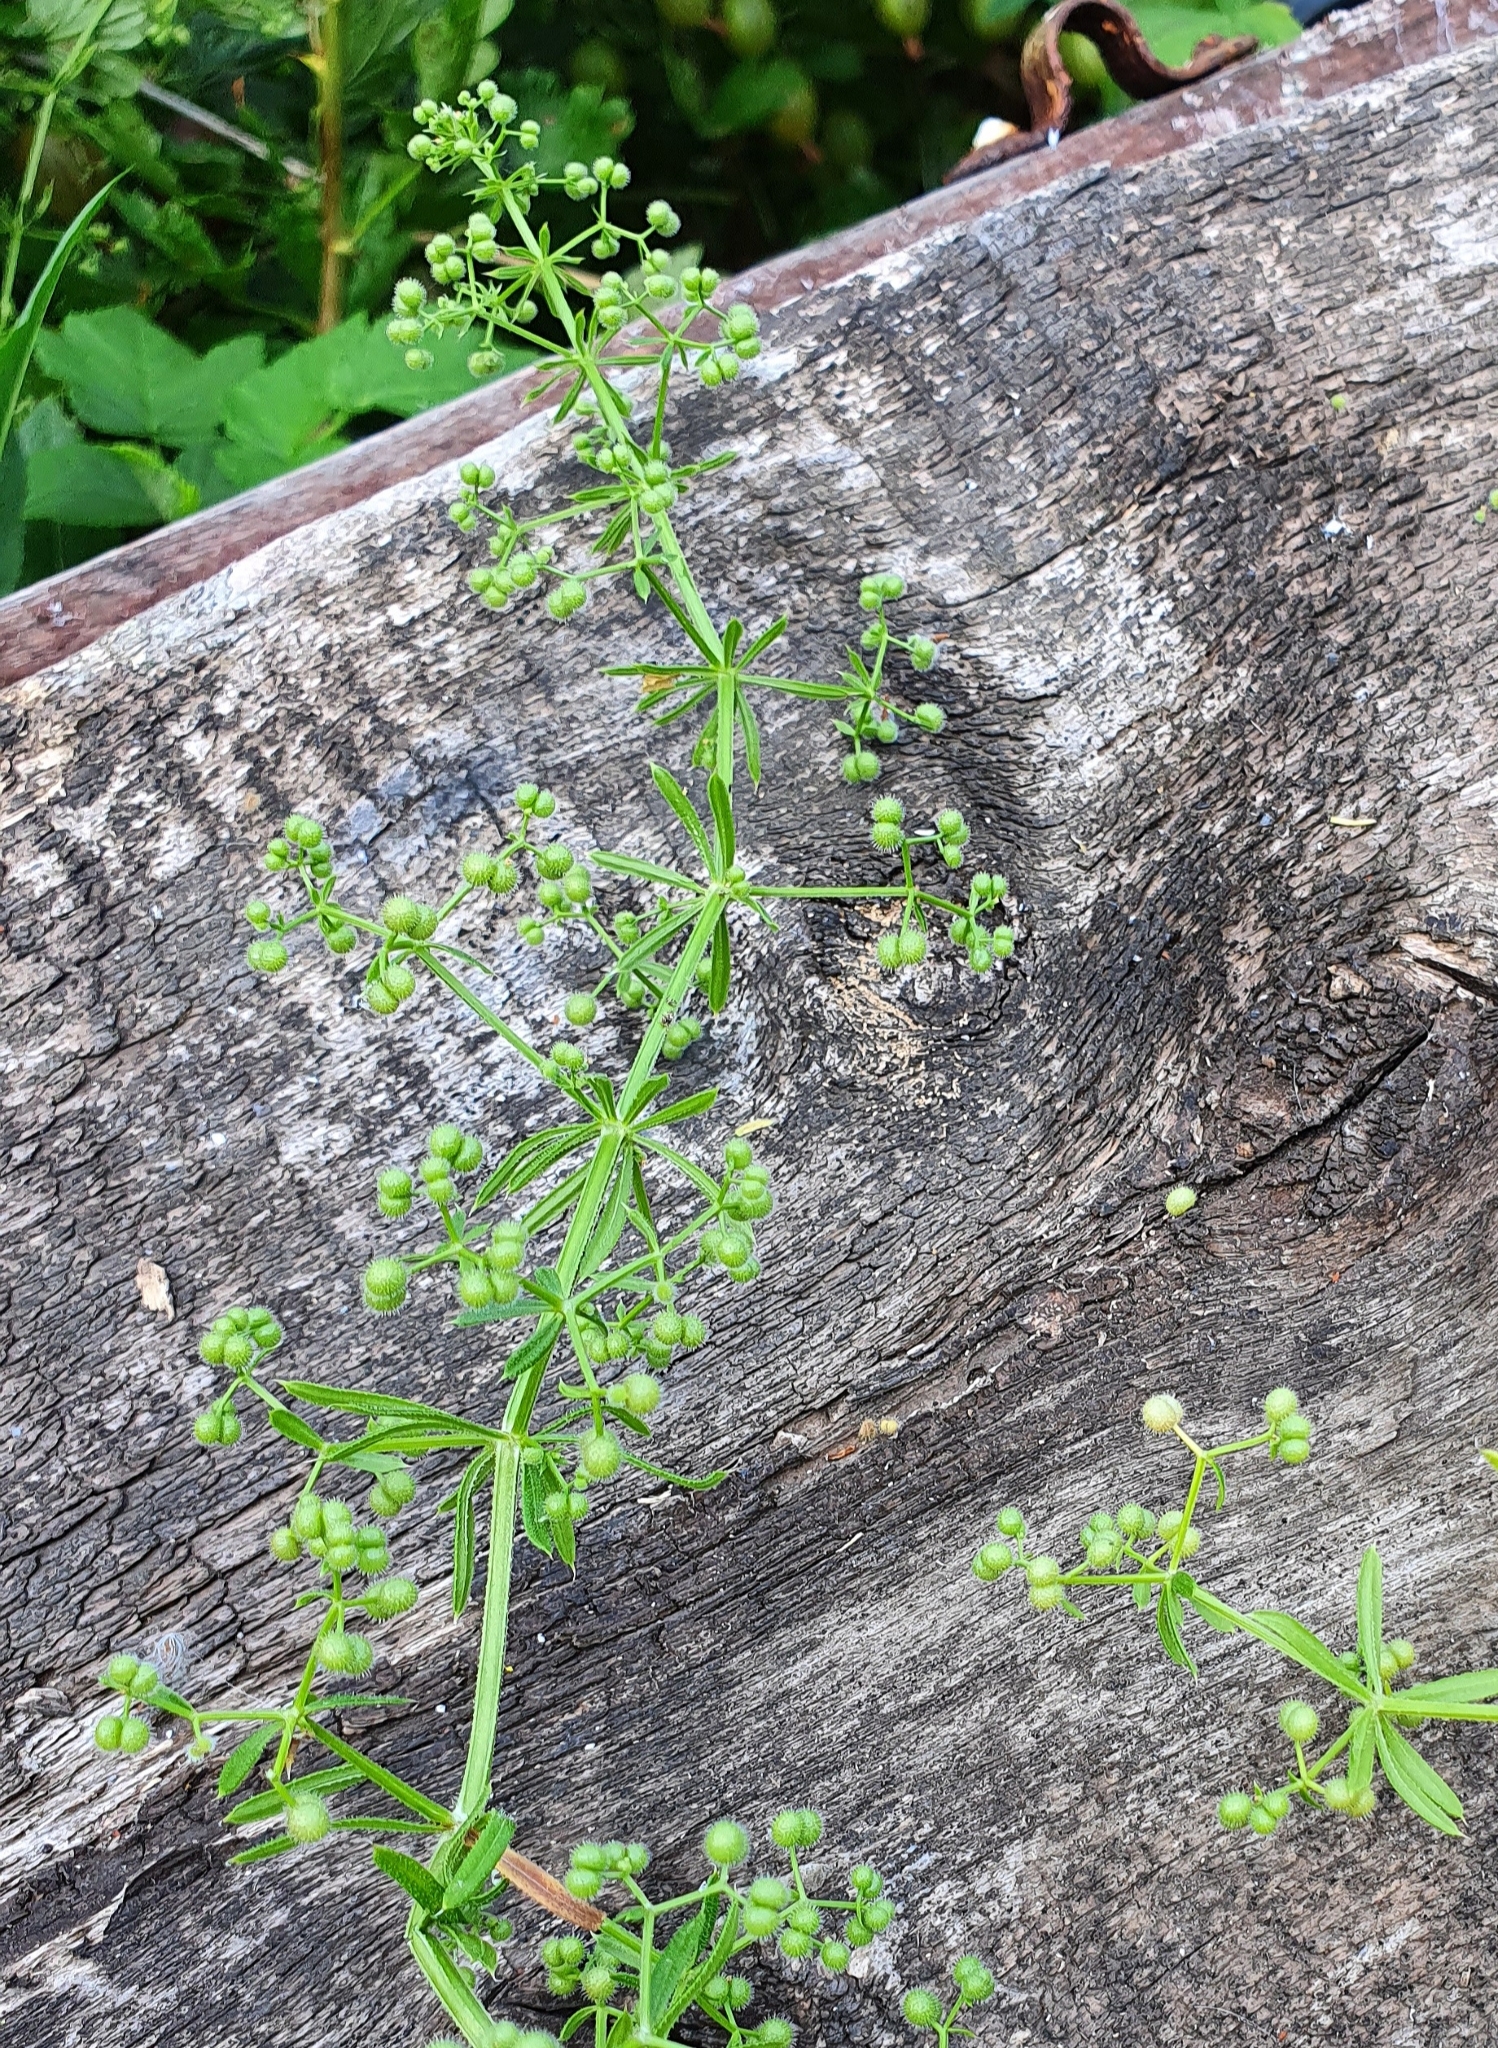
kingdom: Plantae
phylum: Tracheophyta
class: Magnoliopsida
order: Gentianales
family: Rubiaceae
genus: Galium
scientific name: Galium aparine
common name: Cleavers
